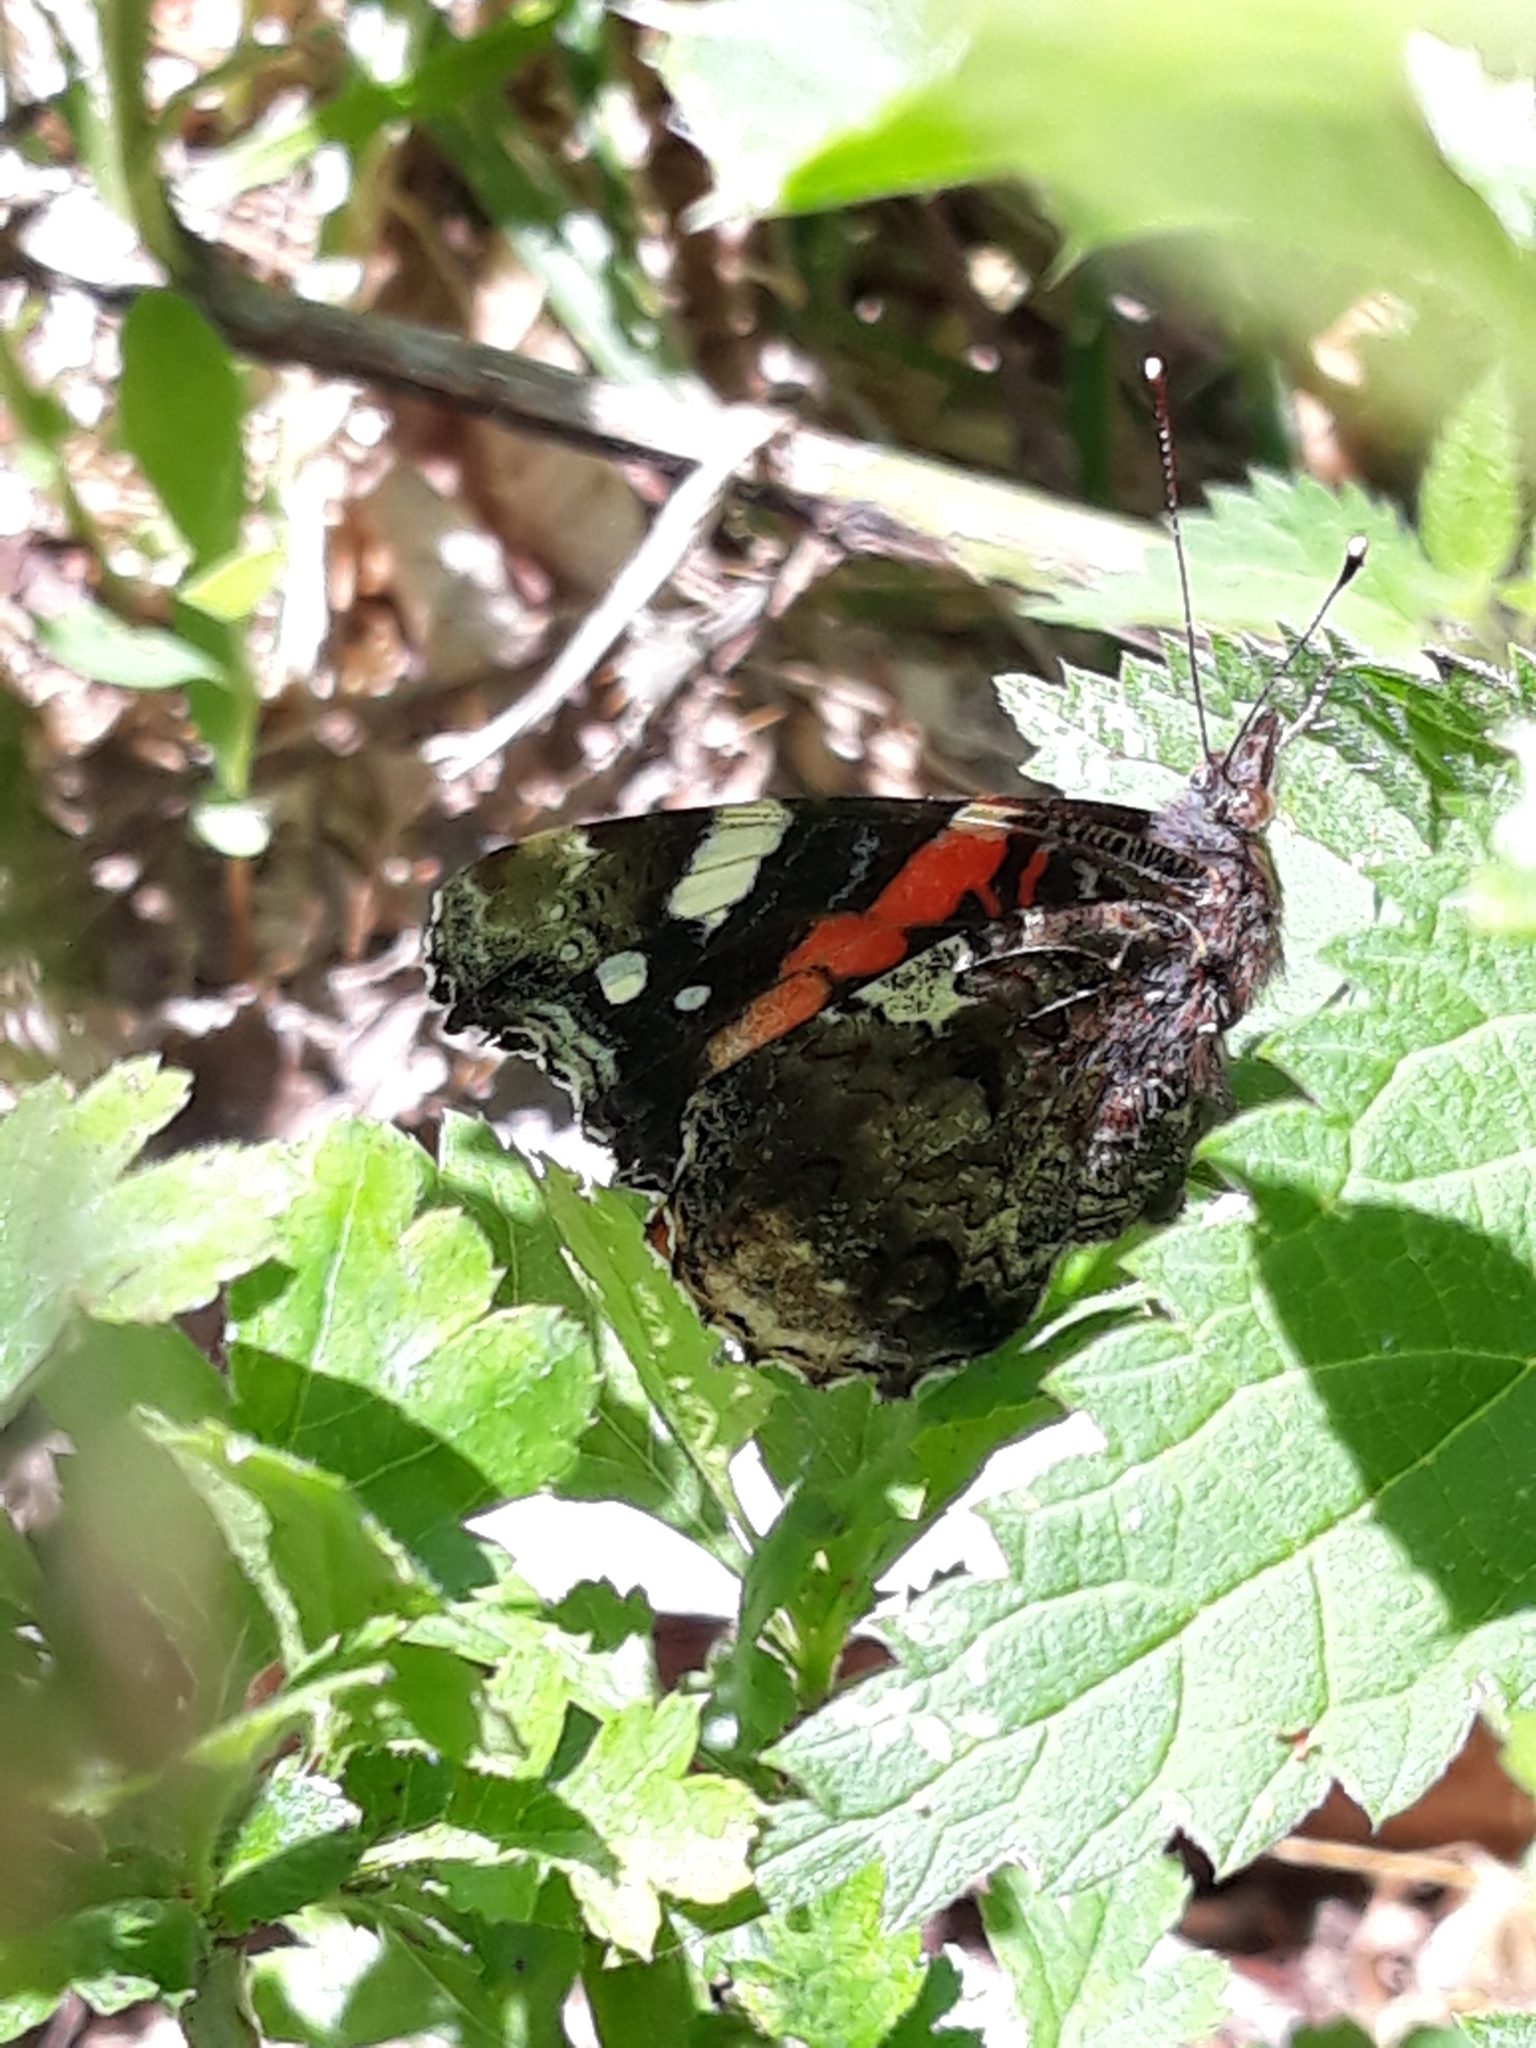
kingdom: Animalia
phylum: Arthropoda
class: Insecta
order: Lepidoptera
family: Nymphalidae
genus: Vanessa
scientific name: Vanessa atalanta
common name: Red admiral
